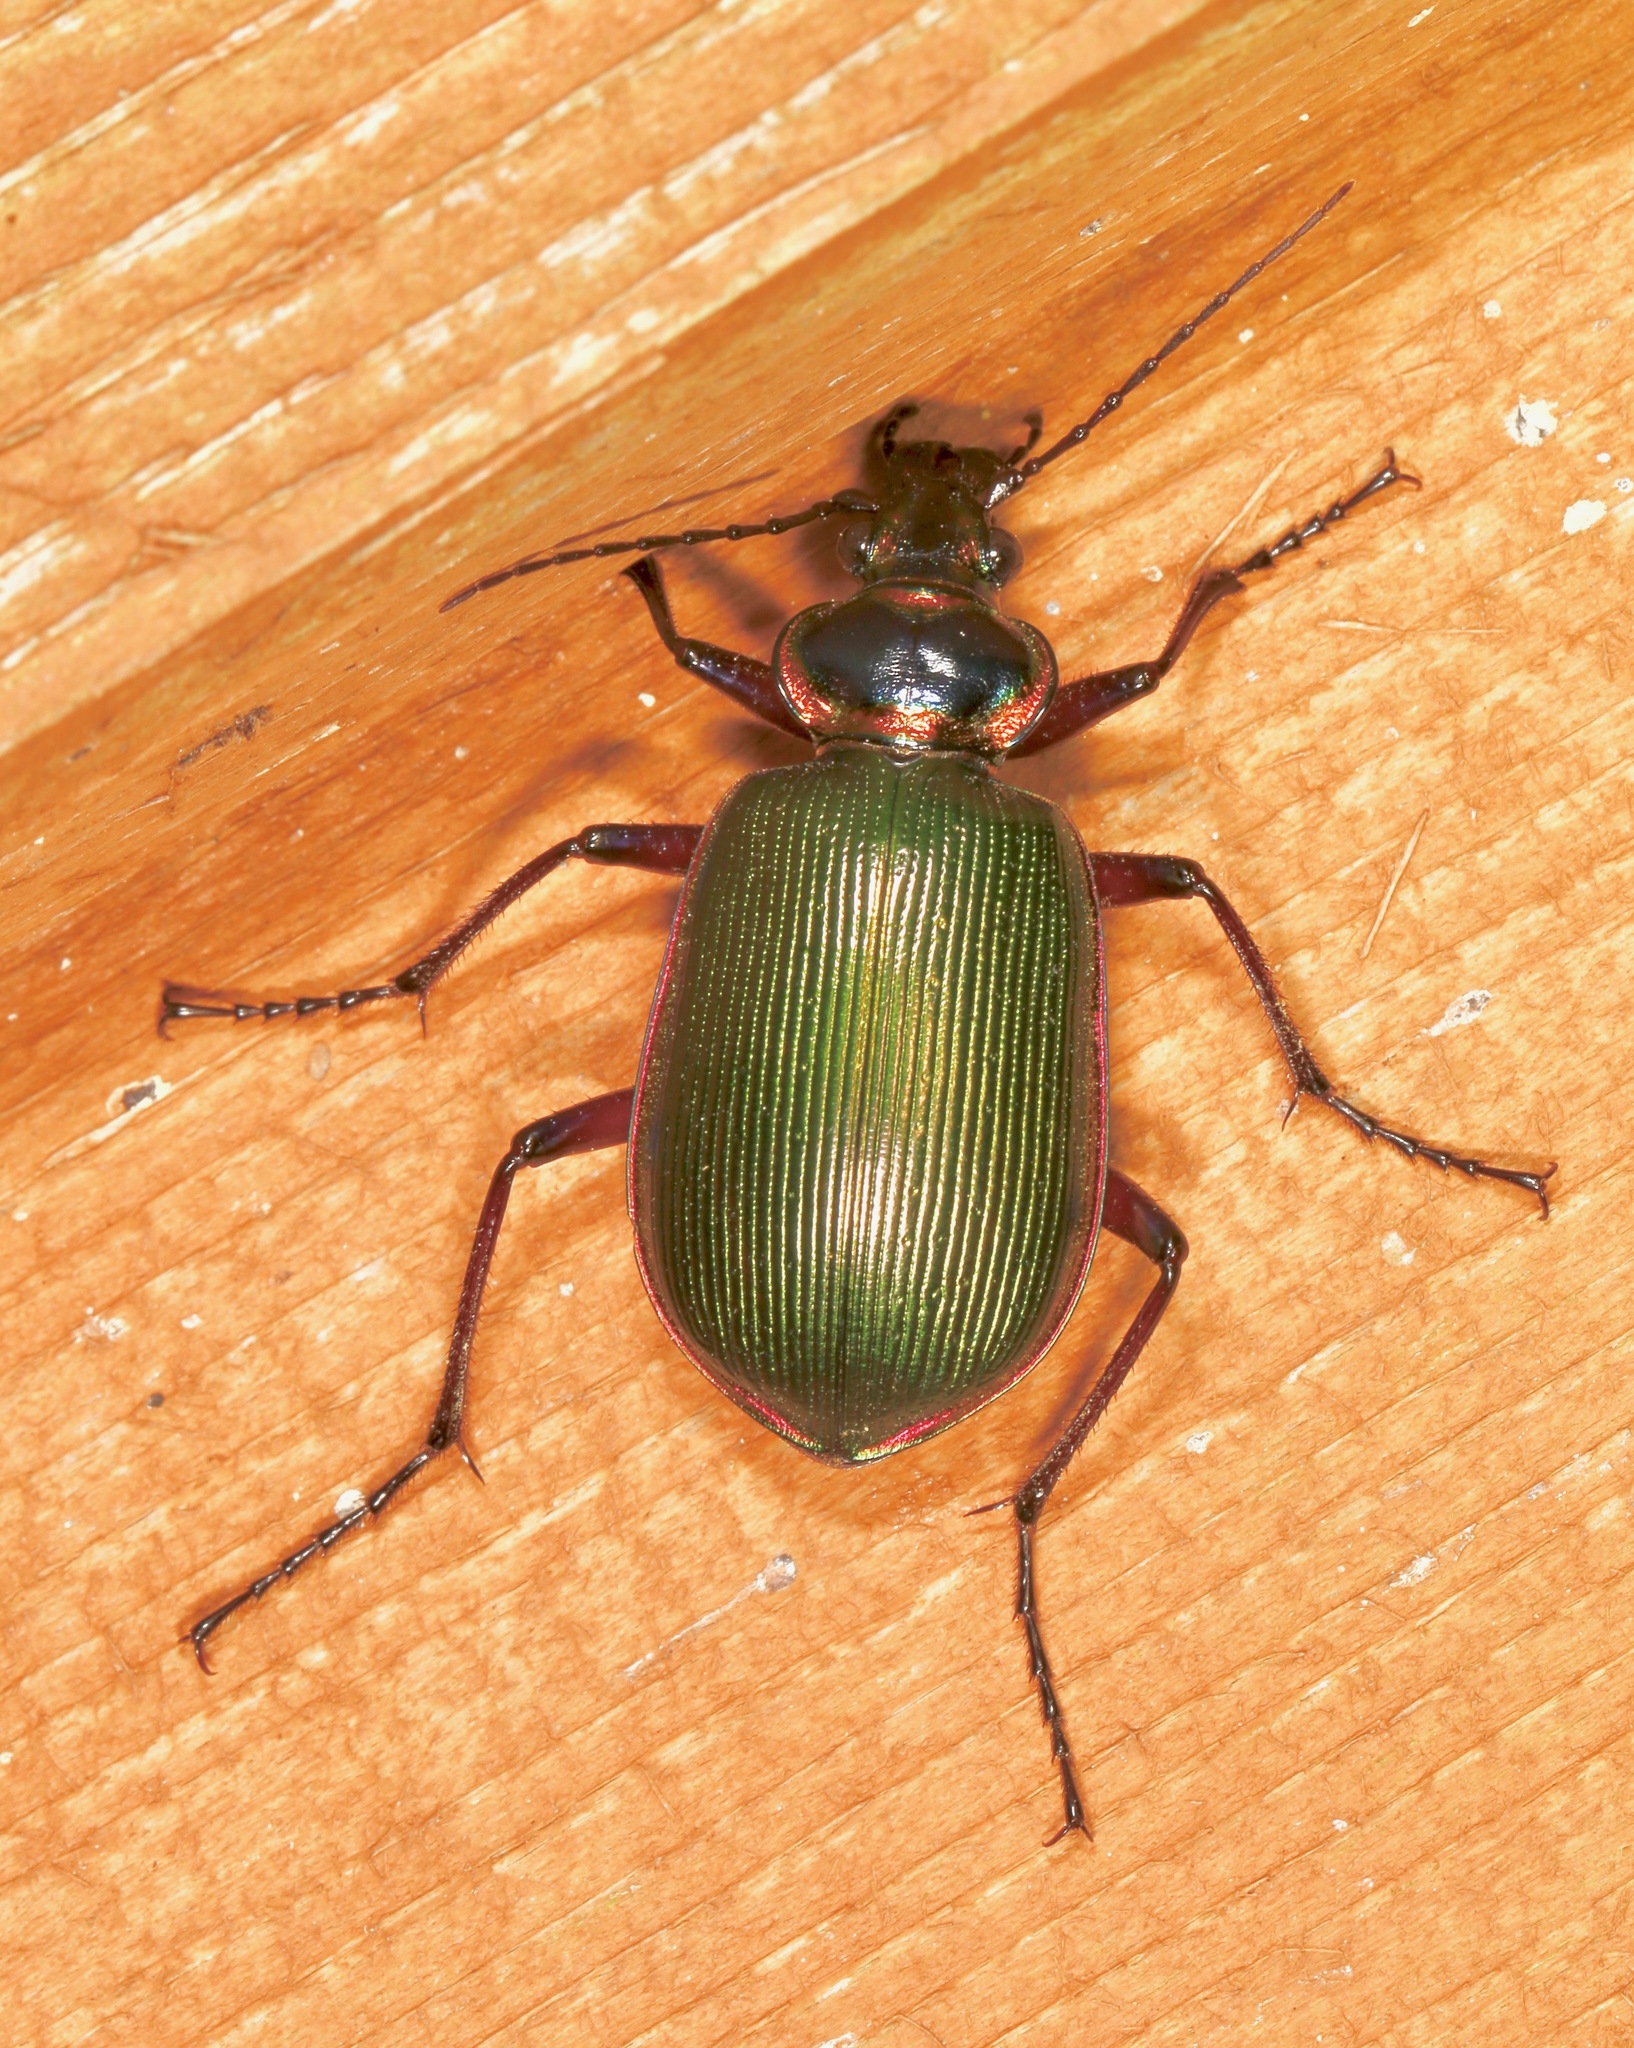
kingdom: Animalia
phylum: Arthropoda
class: Insecta
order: Coleoptera
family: Carabidae
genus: Calosoma
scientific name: Calosoma scrutator
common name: Fiery searcher beetle
